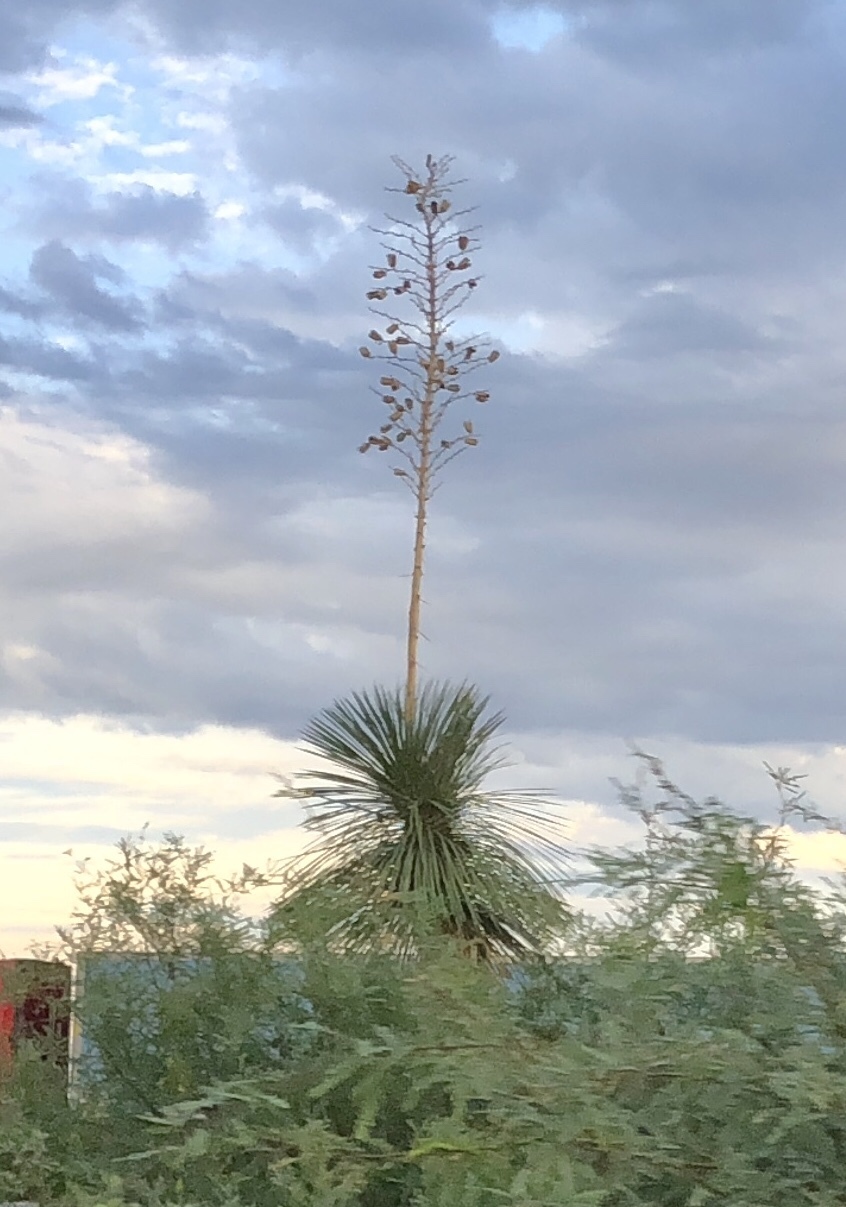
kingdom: Plantae
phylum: Tracheophyta
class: Liliopsida
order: Asparagales
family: Asparagaceae
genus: Yucca
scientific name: Yucca elata
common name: Palmella
